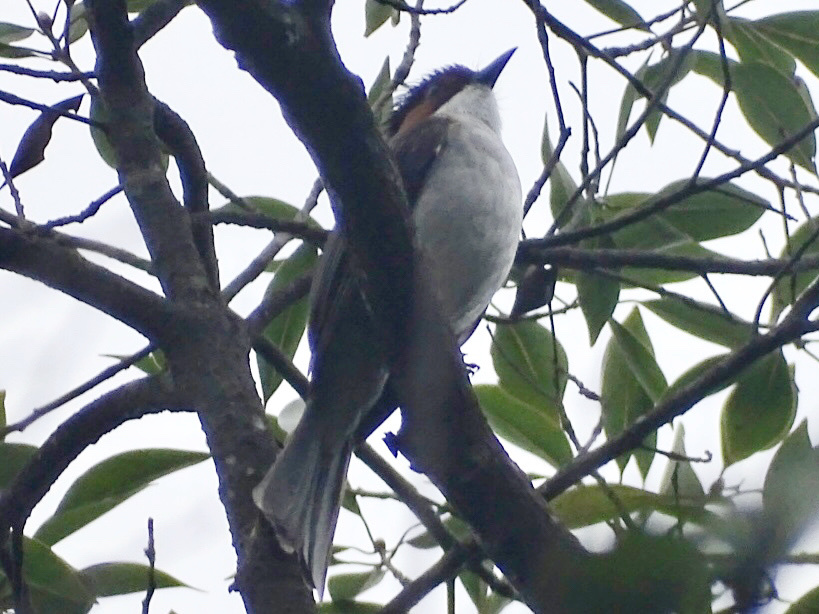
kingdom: Animalia
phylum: Chordata
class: Aves
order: Passeriformes
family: Pycnonotidae
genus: Hemixos
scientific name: Hemixos castanonotus
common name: Chestnut bulbul
